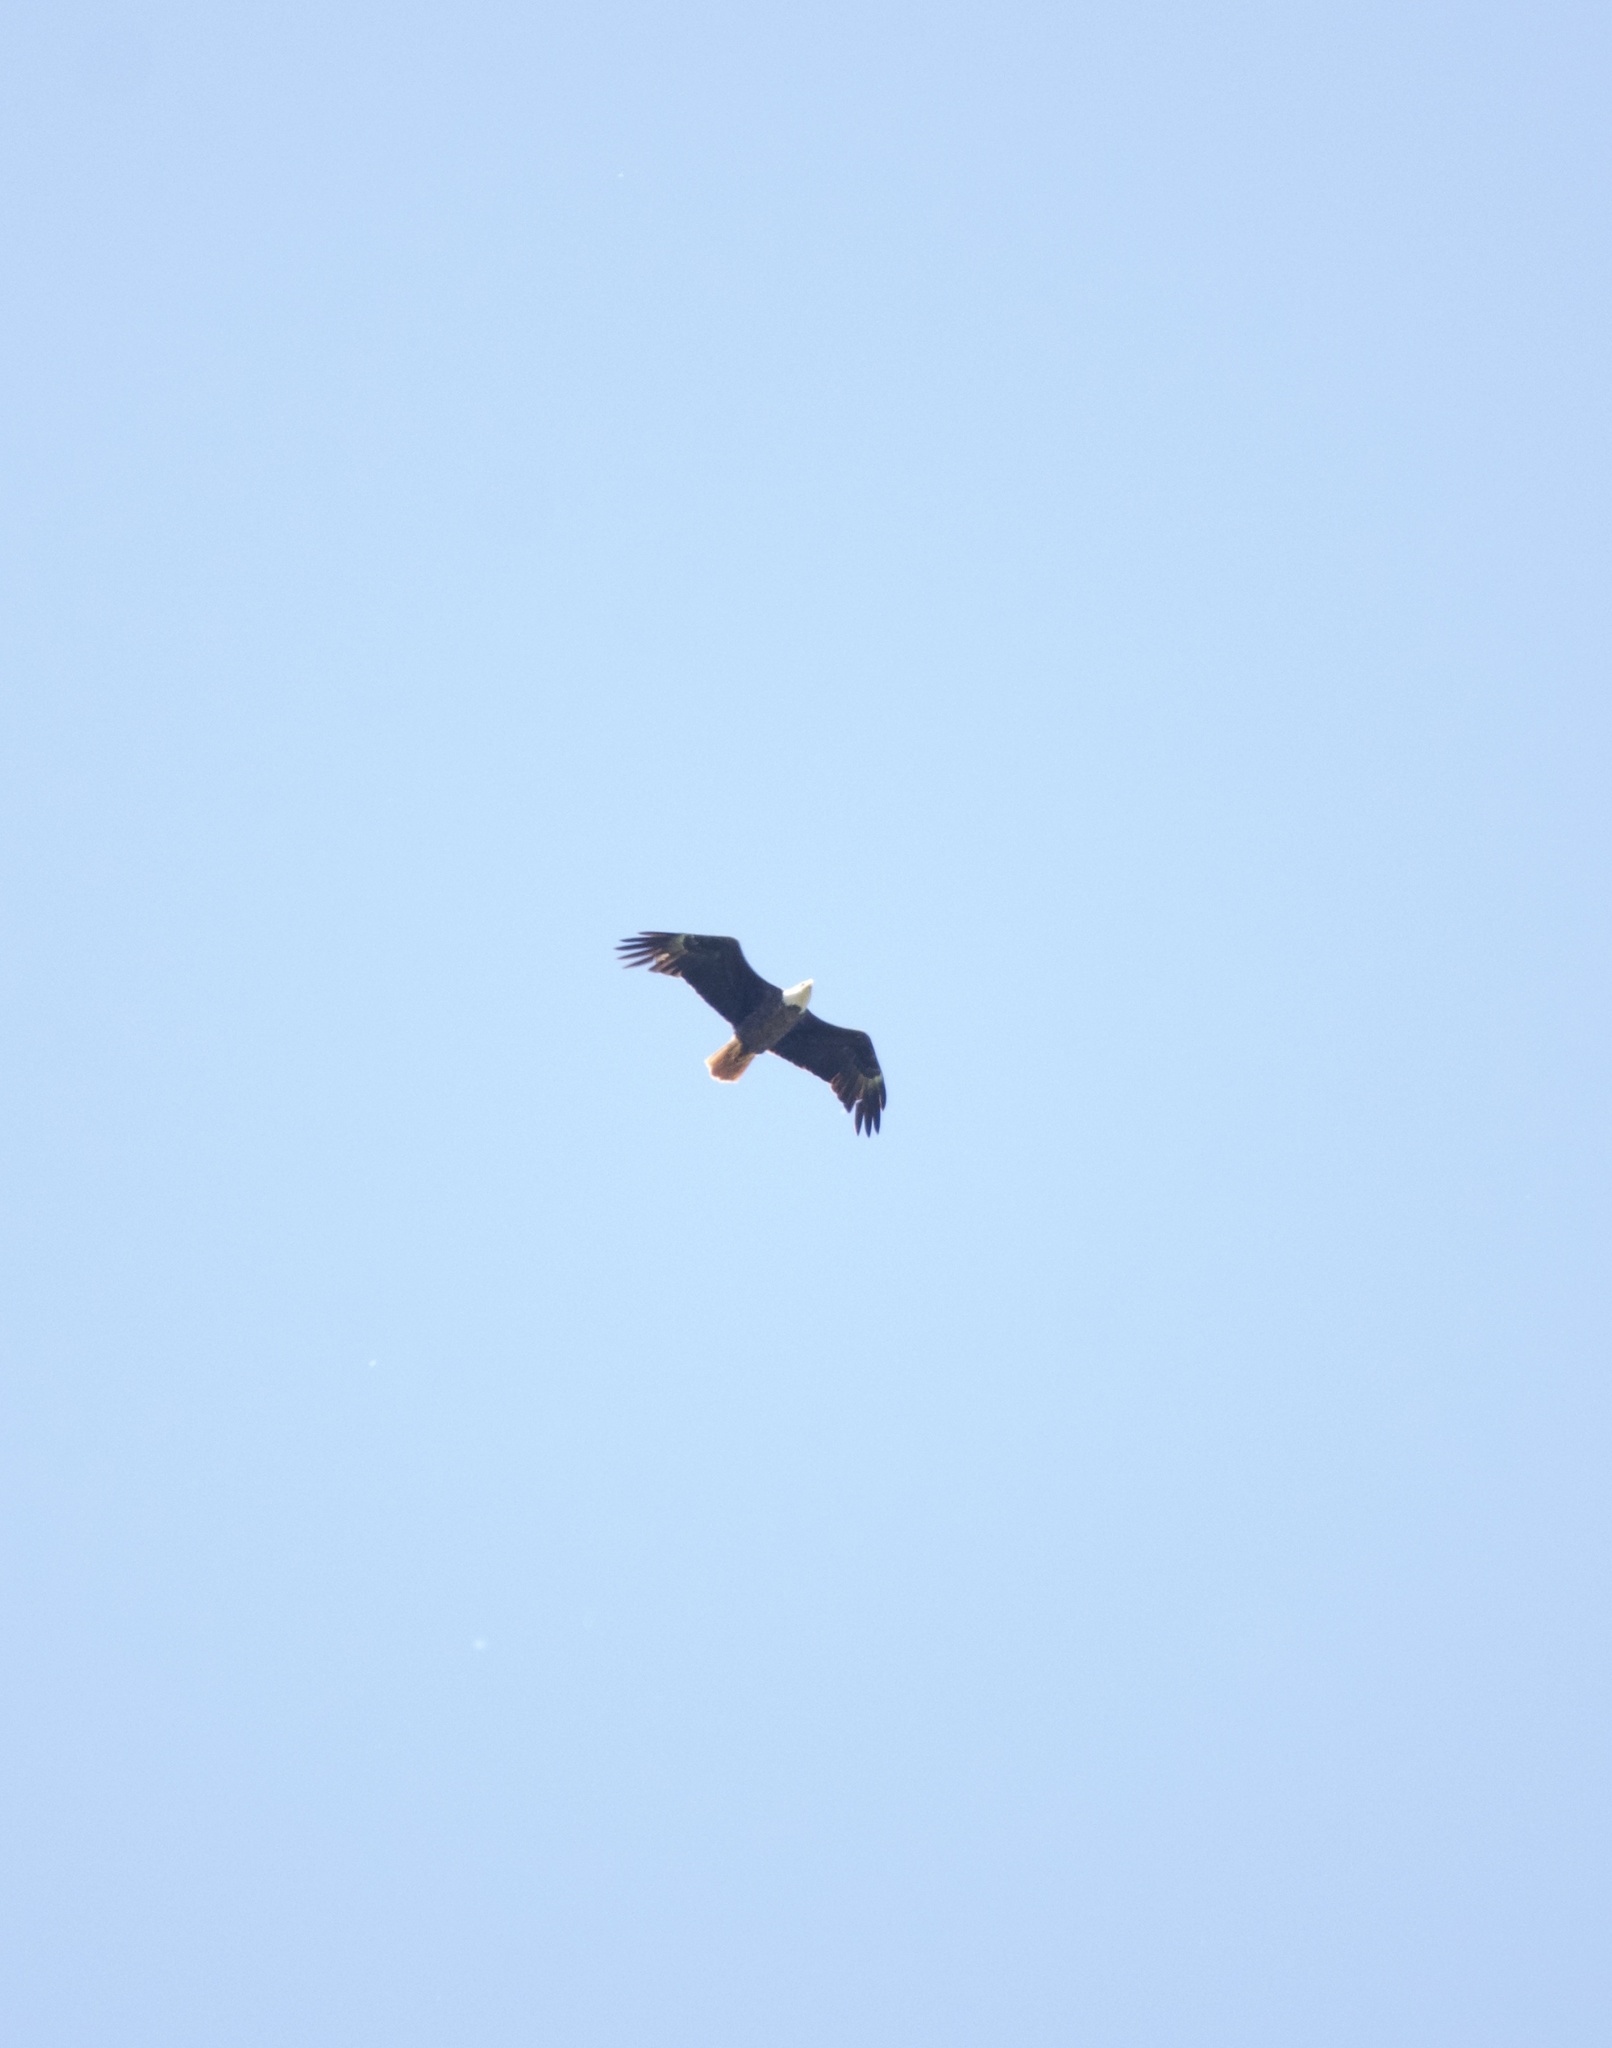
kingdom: Animalia
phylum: Chordata
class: Aves
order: Accipitriformes
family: Accipitridae
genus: Haliaeetus
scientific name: Haliaeetus leucocephalus
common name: Bald eagle
